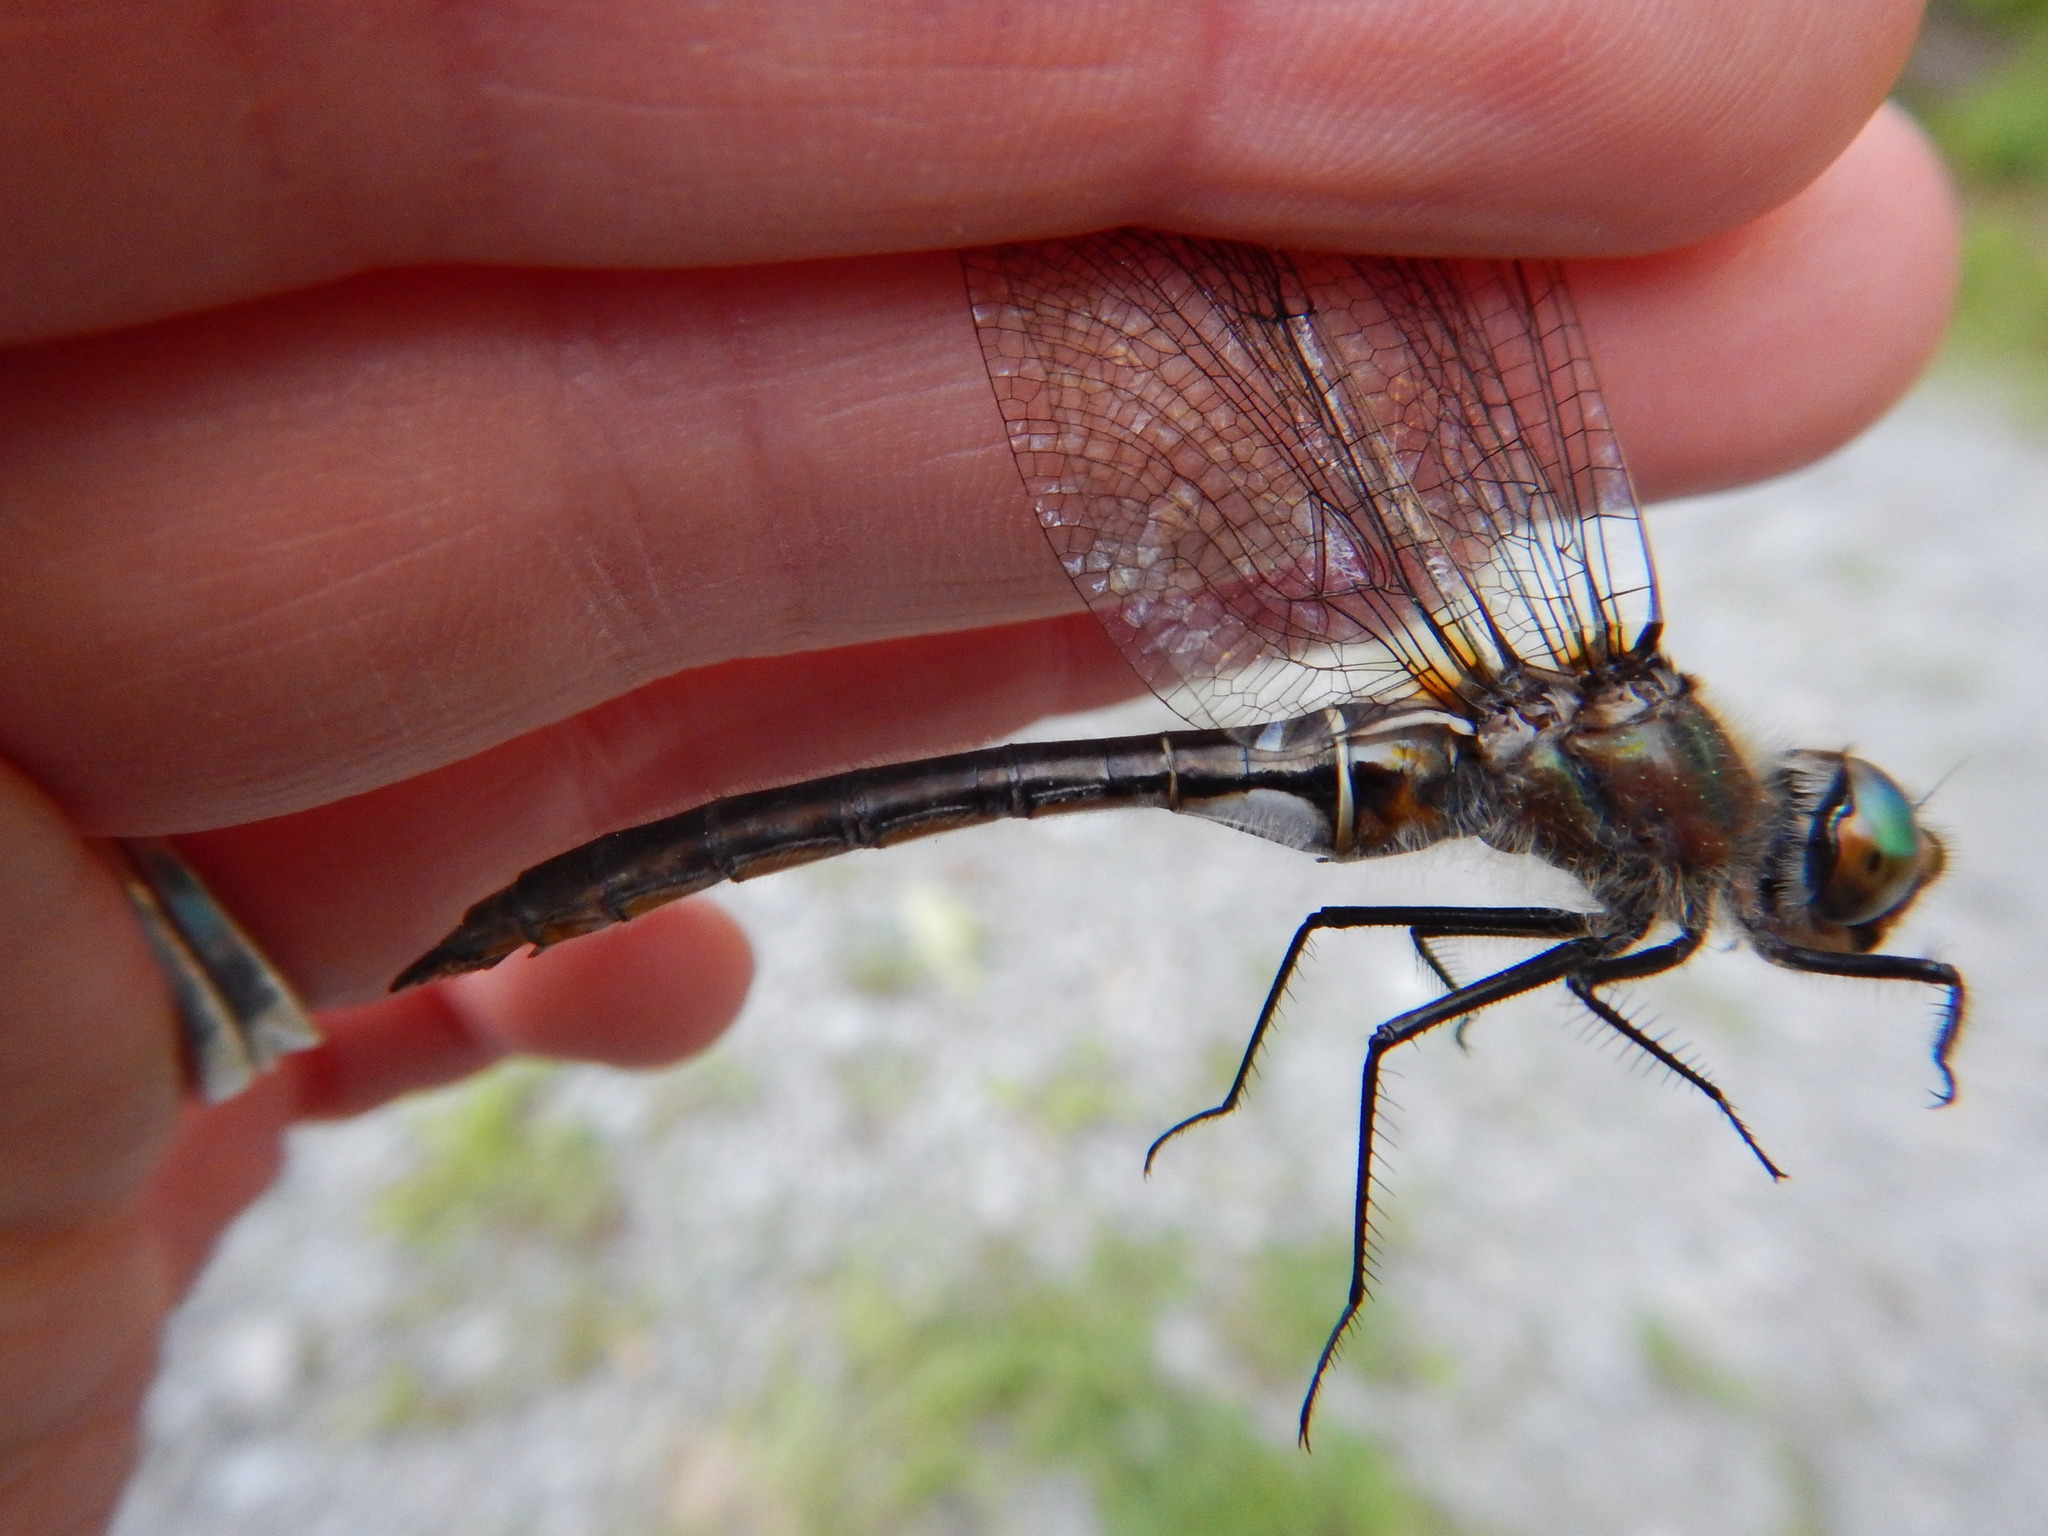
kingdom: Animalia
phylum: Arthropoda
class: Insecta
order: Odonata
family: Corduliidae
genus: Cordulia
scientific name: Cordulia shurtleffii
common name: American emerald
